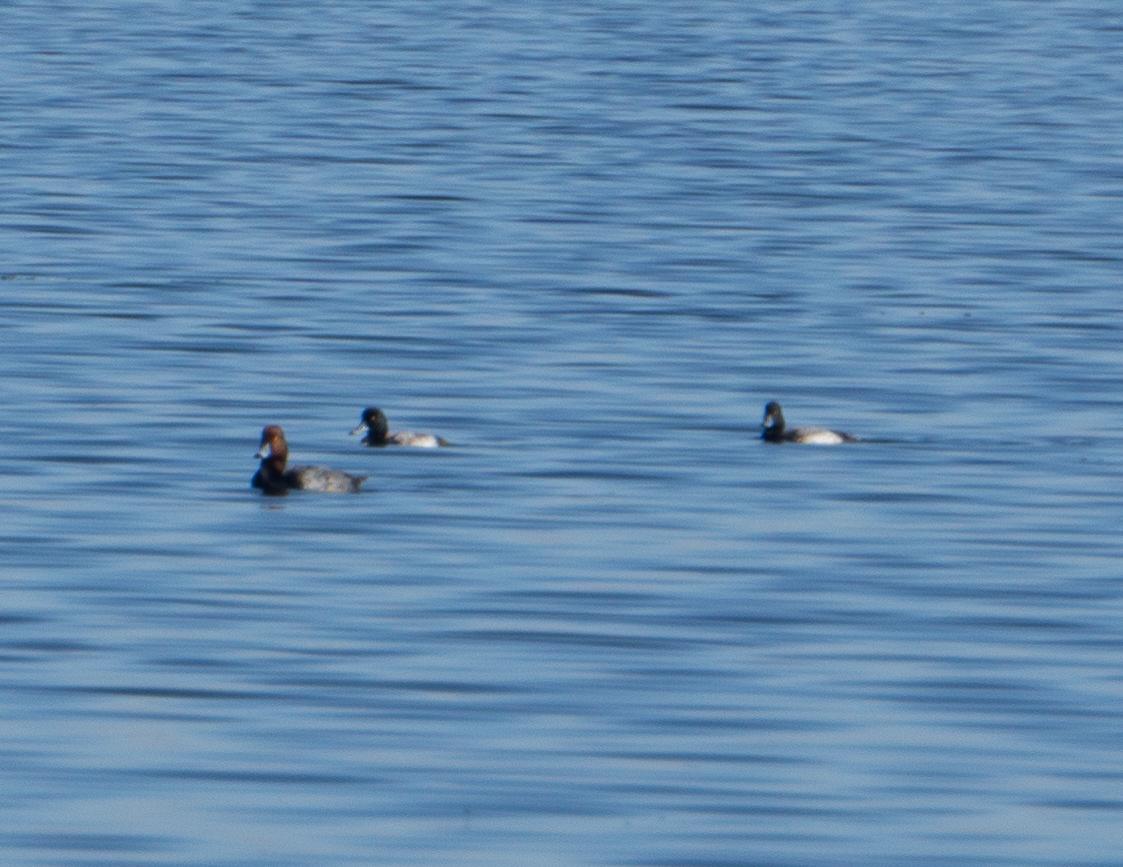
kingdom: Animalia
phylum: Chordata
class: Aves
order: Anseriformes
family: Anatidae
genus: Aythya
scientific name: Aythya americana
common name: Redhead
